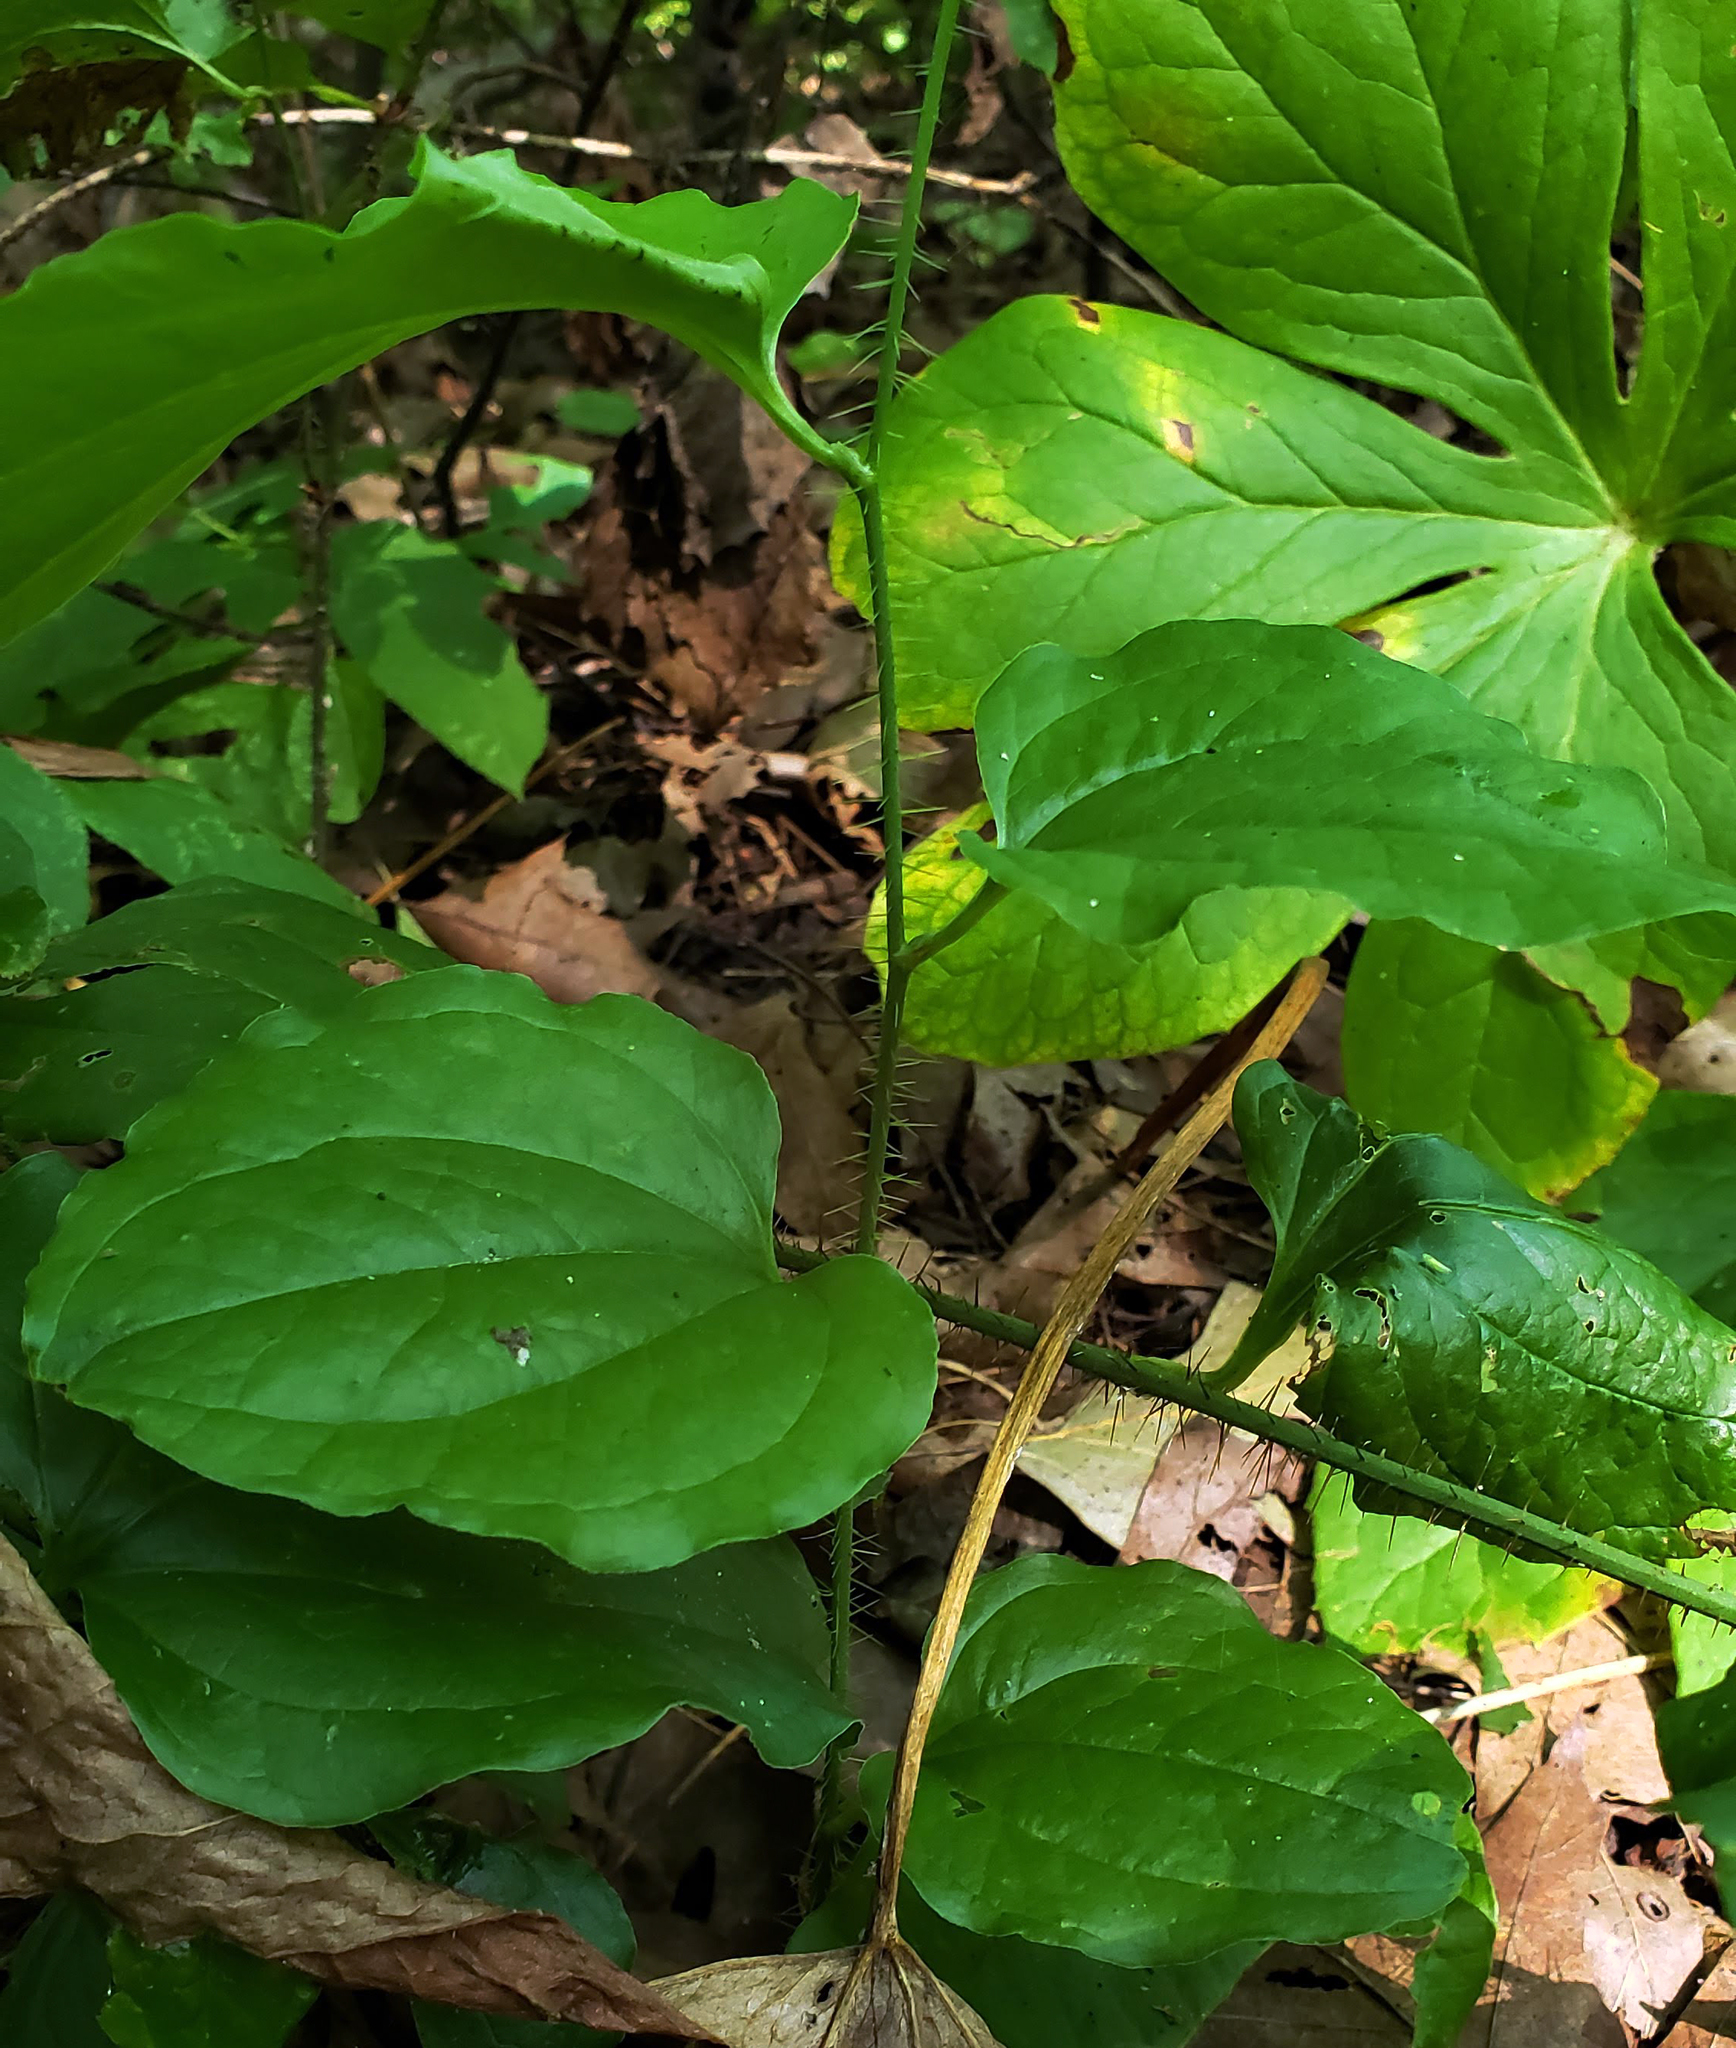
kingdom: Plantae
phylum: Tracheophyta
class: Liliopsida
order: Liliales
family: Smilacaceae
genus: Smilax
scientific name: Smilax tamnoides
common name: Hellfetter
